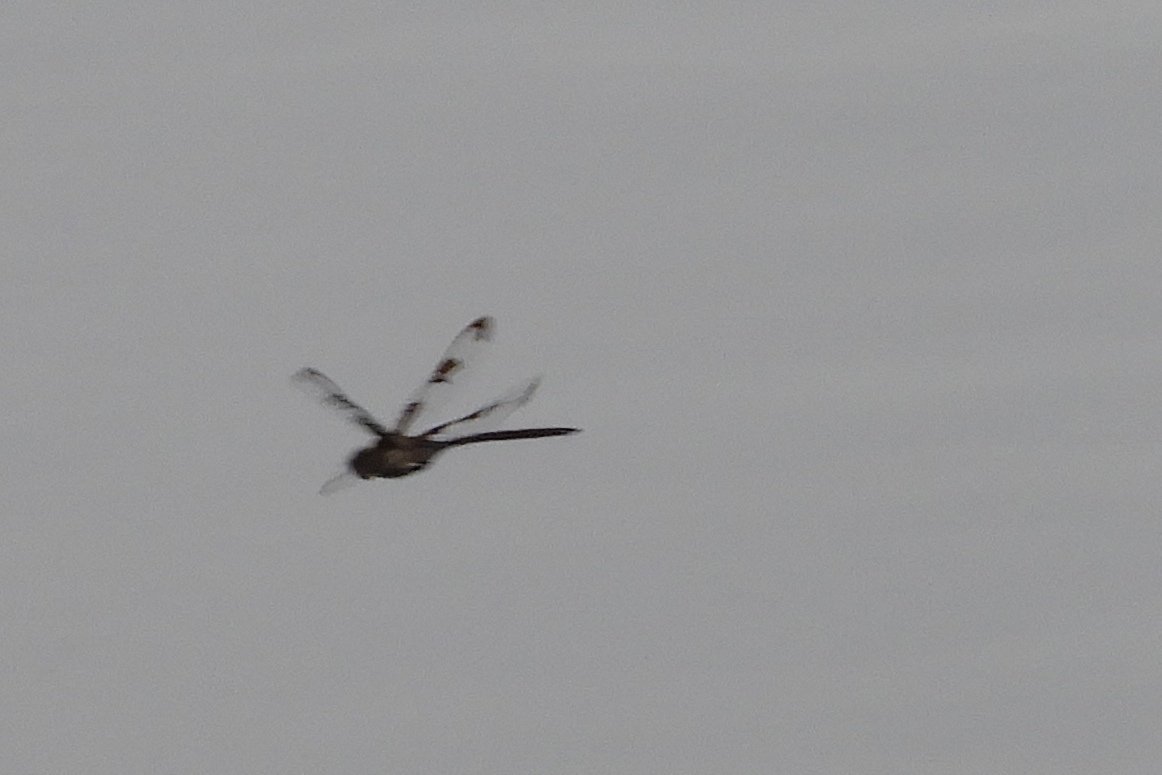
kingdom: Animalia
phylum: Arthropoda
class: Insecta
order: Odonata
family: Corduliidae
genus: Epitheca
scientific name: Epitheca princeps
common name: Prince baskettail
